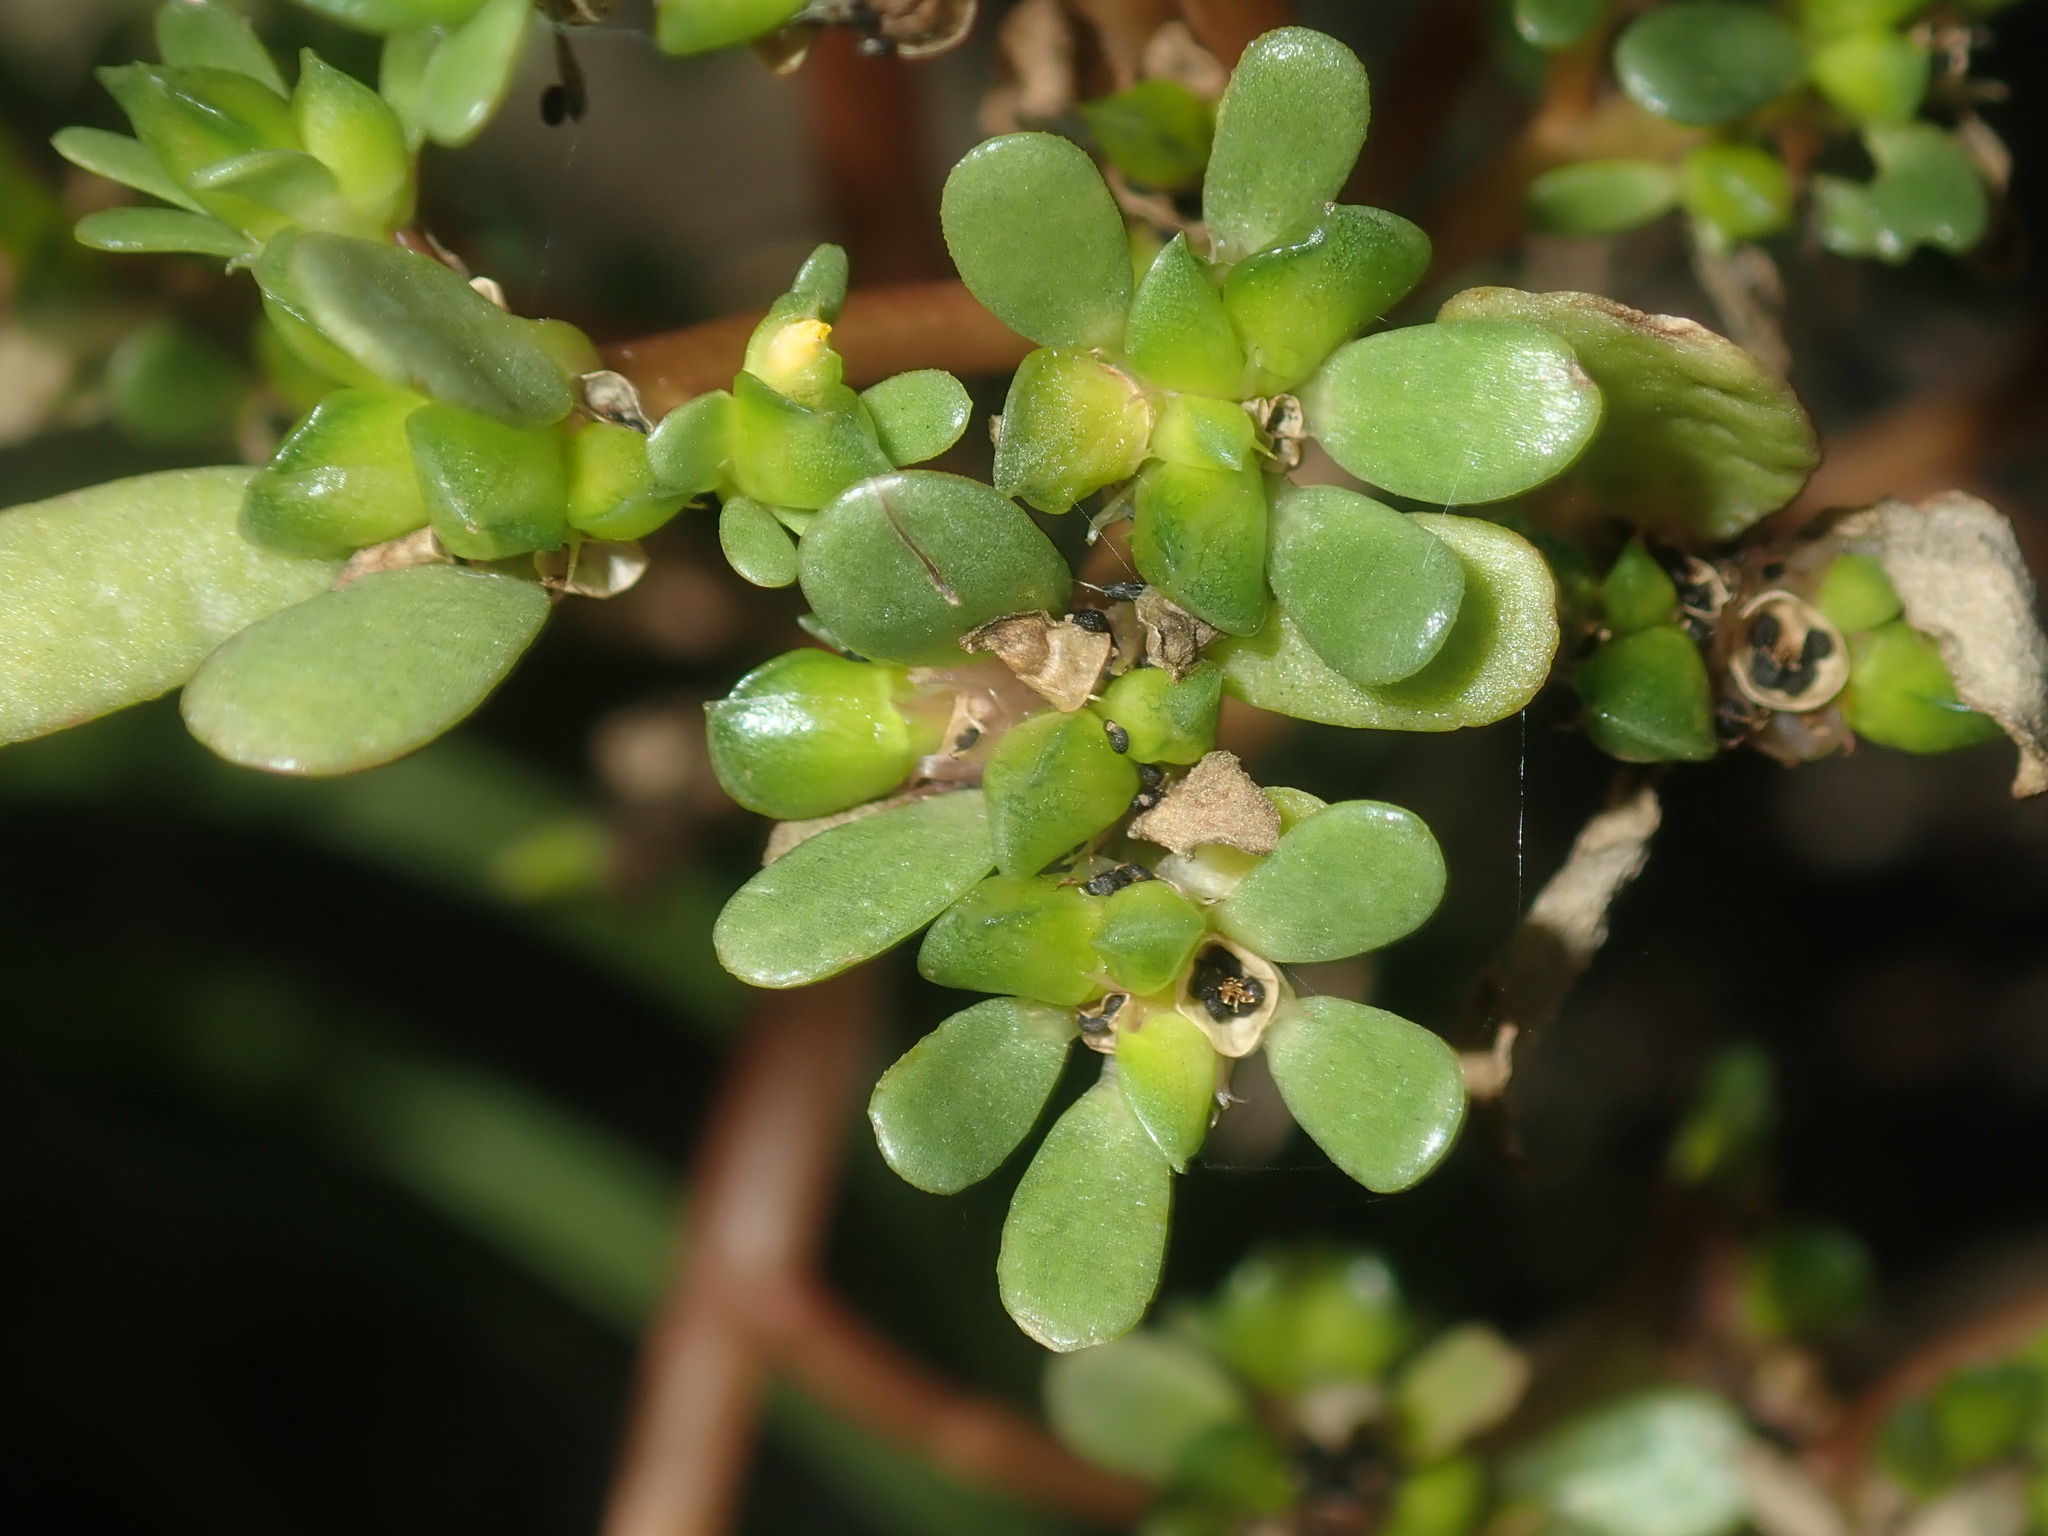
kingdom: Plantae
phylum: Tracheophyta
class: Magnoliopsida
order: Caryophyllales
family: Portulacaceae
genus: Portulaca
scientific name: Portulaca oleracea
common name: Common purslane
